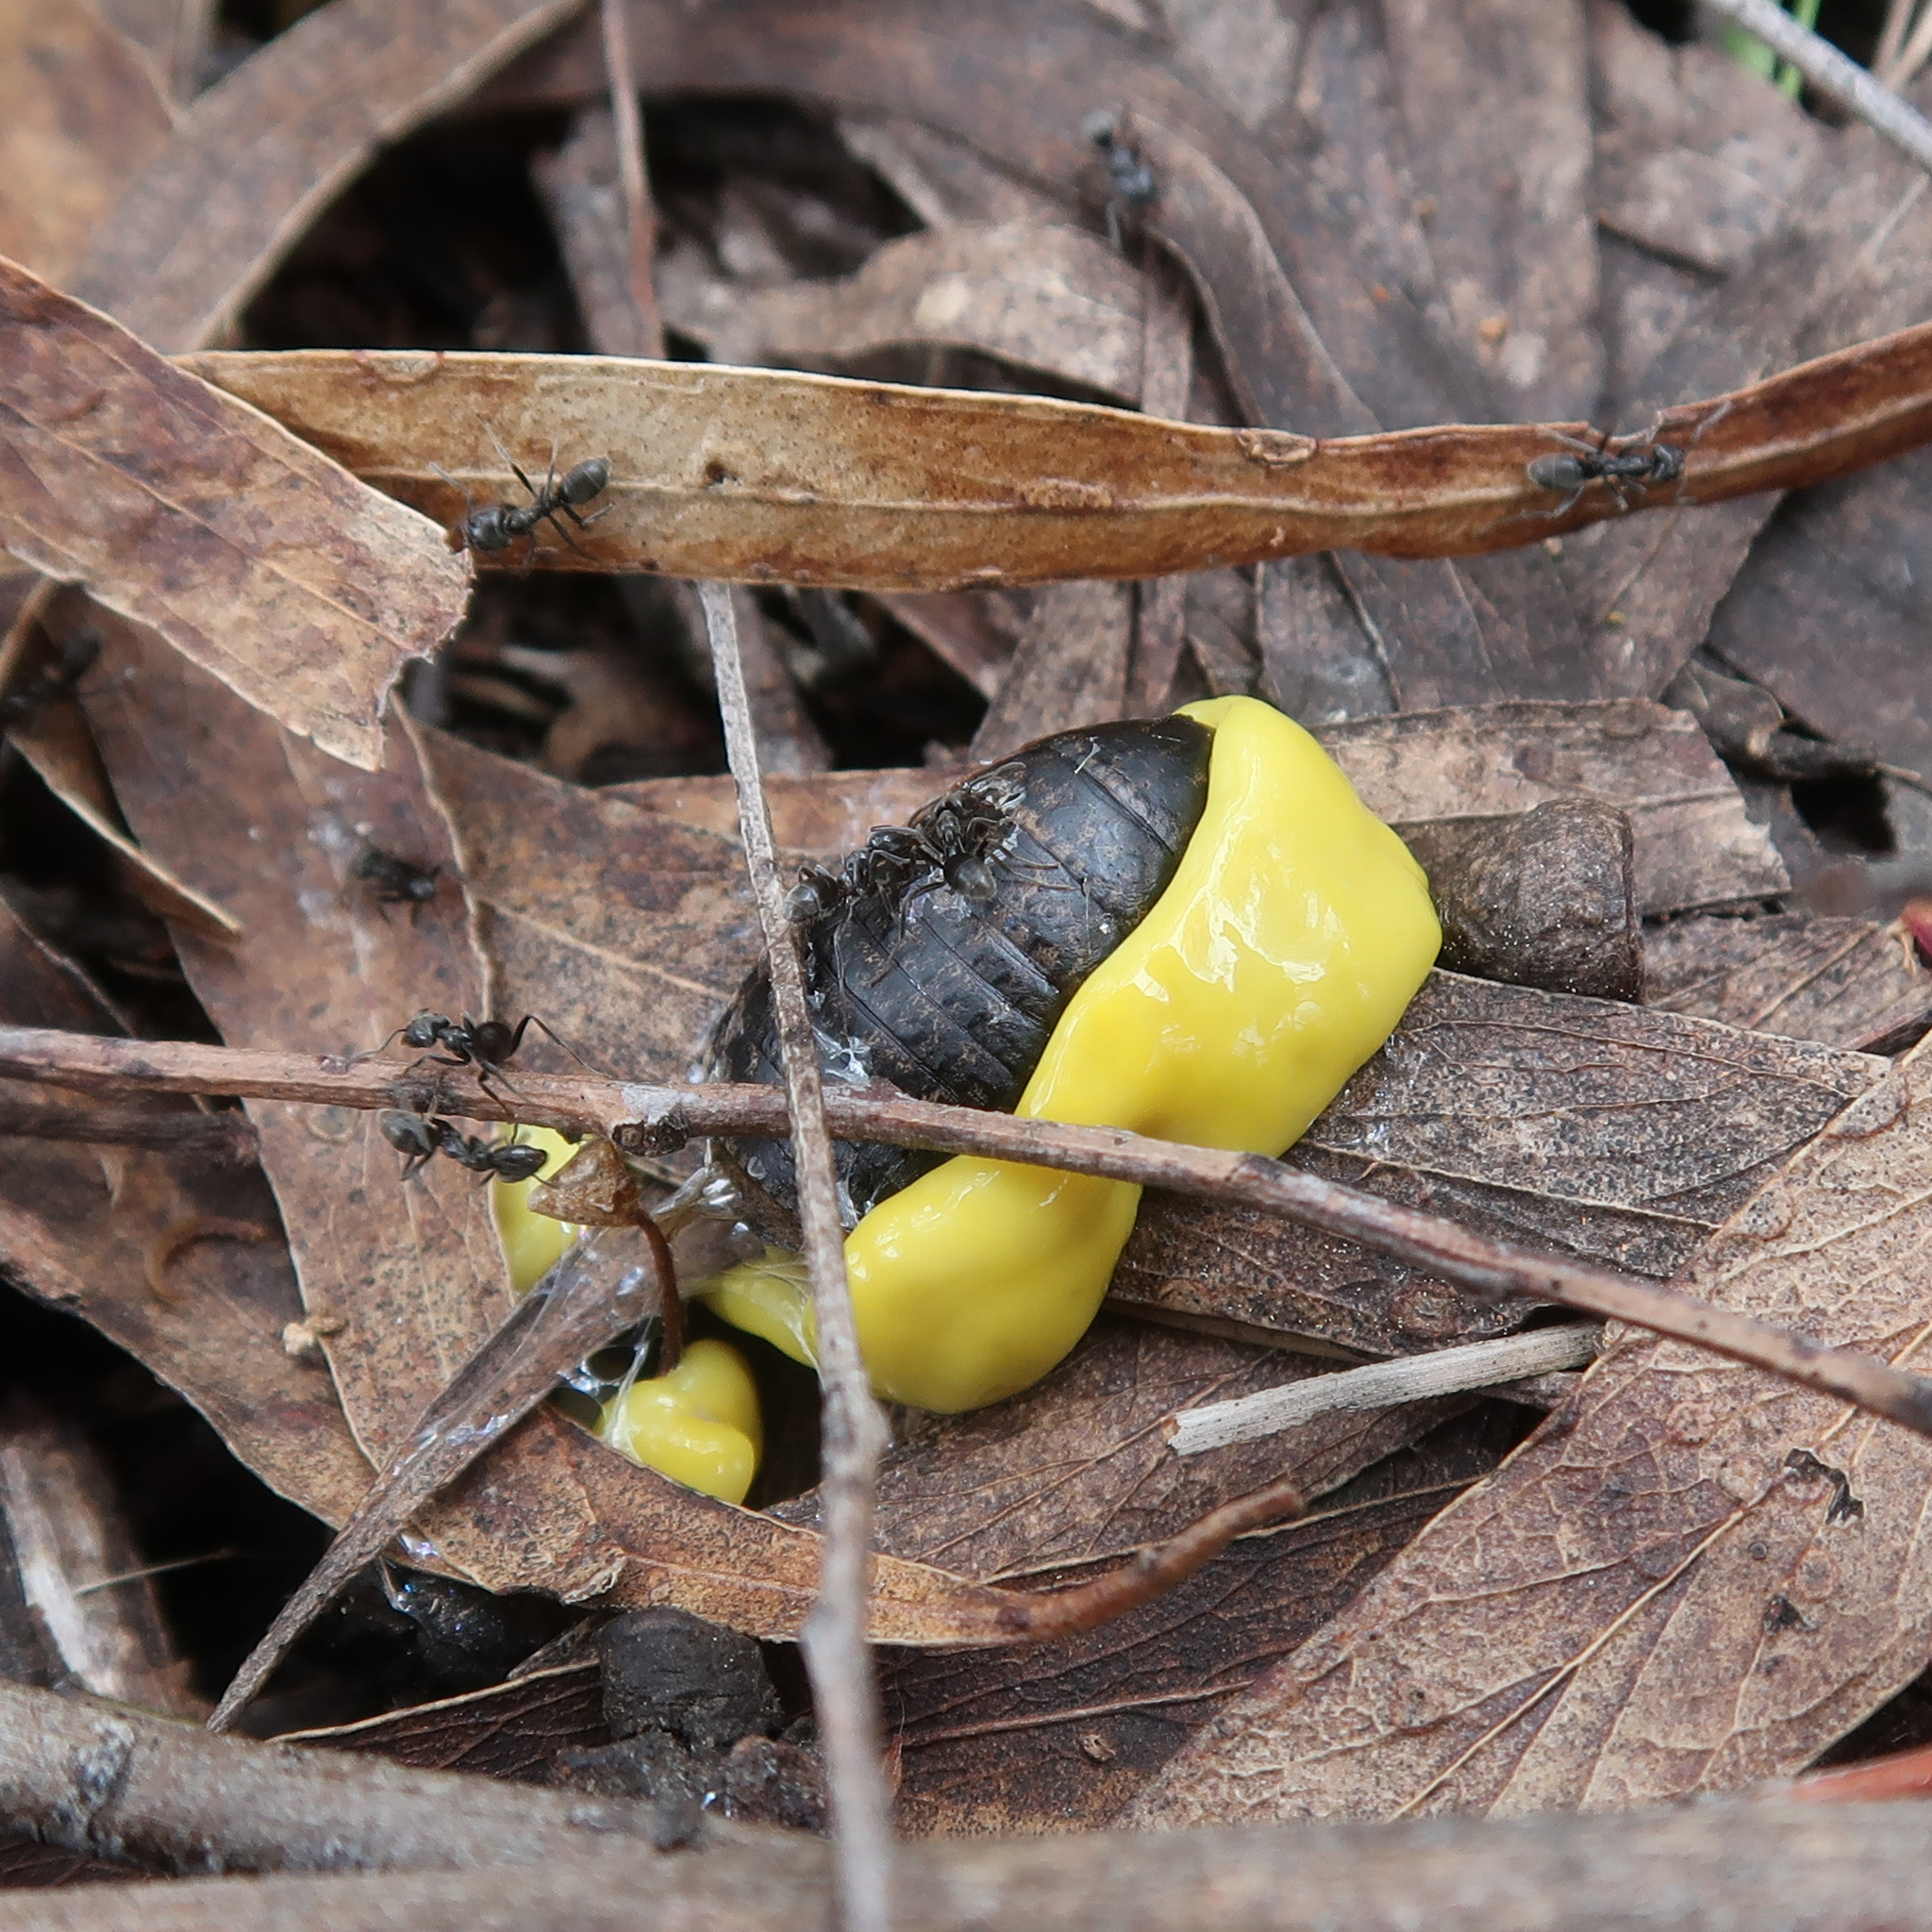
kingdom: Animalia
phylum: Platyhelminthes
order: Tricladida
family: Geoplanidae
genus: Fletchamia
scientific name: Fletchamia sugdeni
